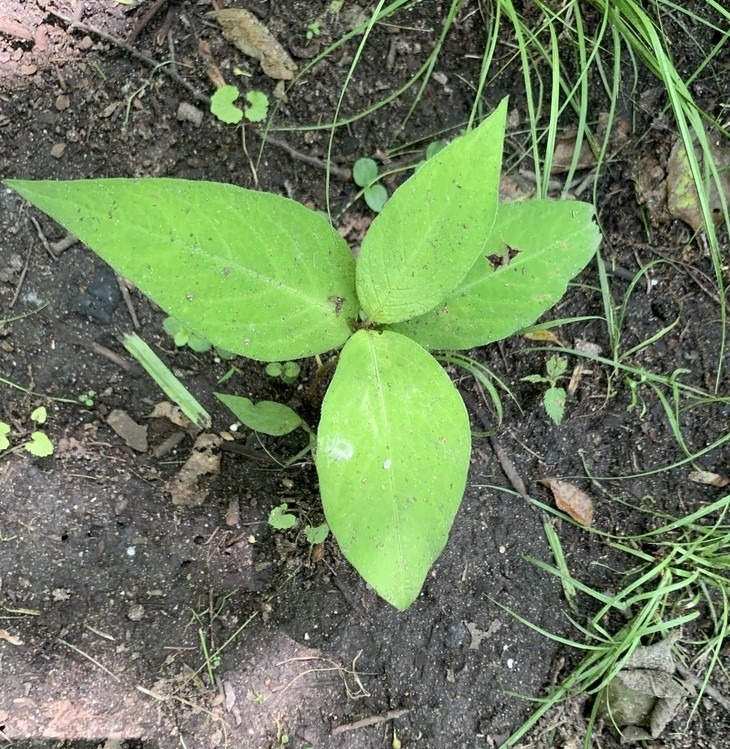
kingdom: Plantae
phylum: Tracheophyta
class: Magnoliopsida
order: Caryophyllales
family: Polygonaceae
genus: Persicaria
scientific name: Persicaria virginiana
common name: Jumpseed
